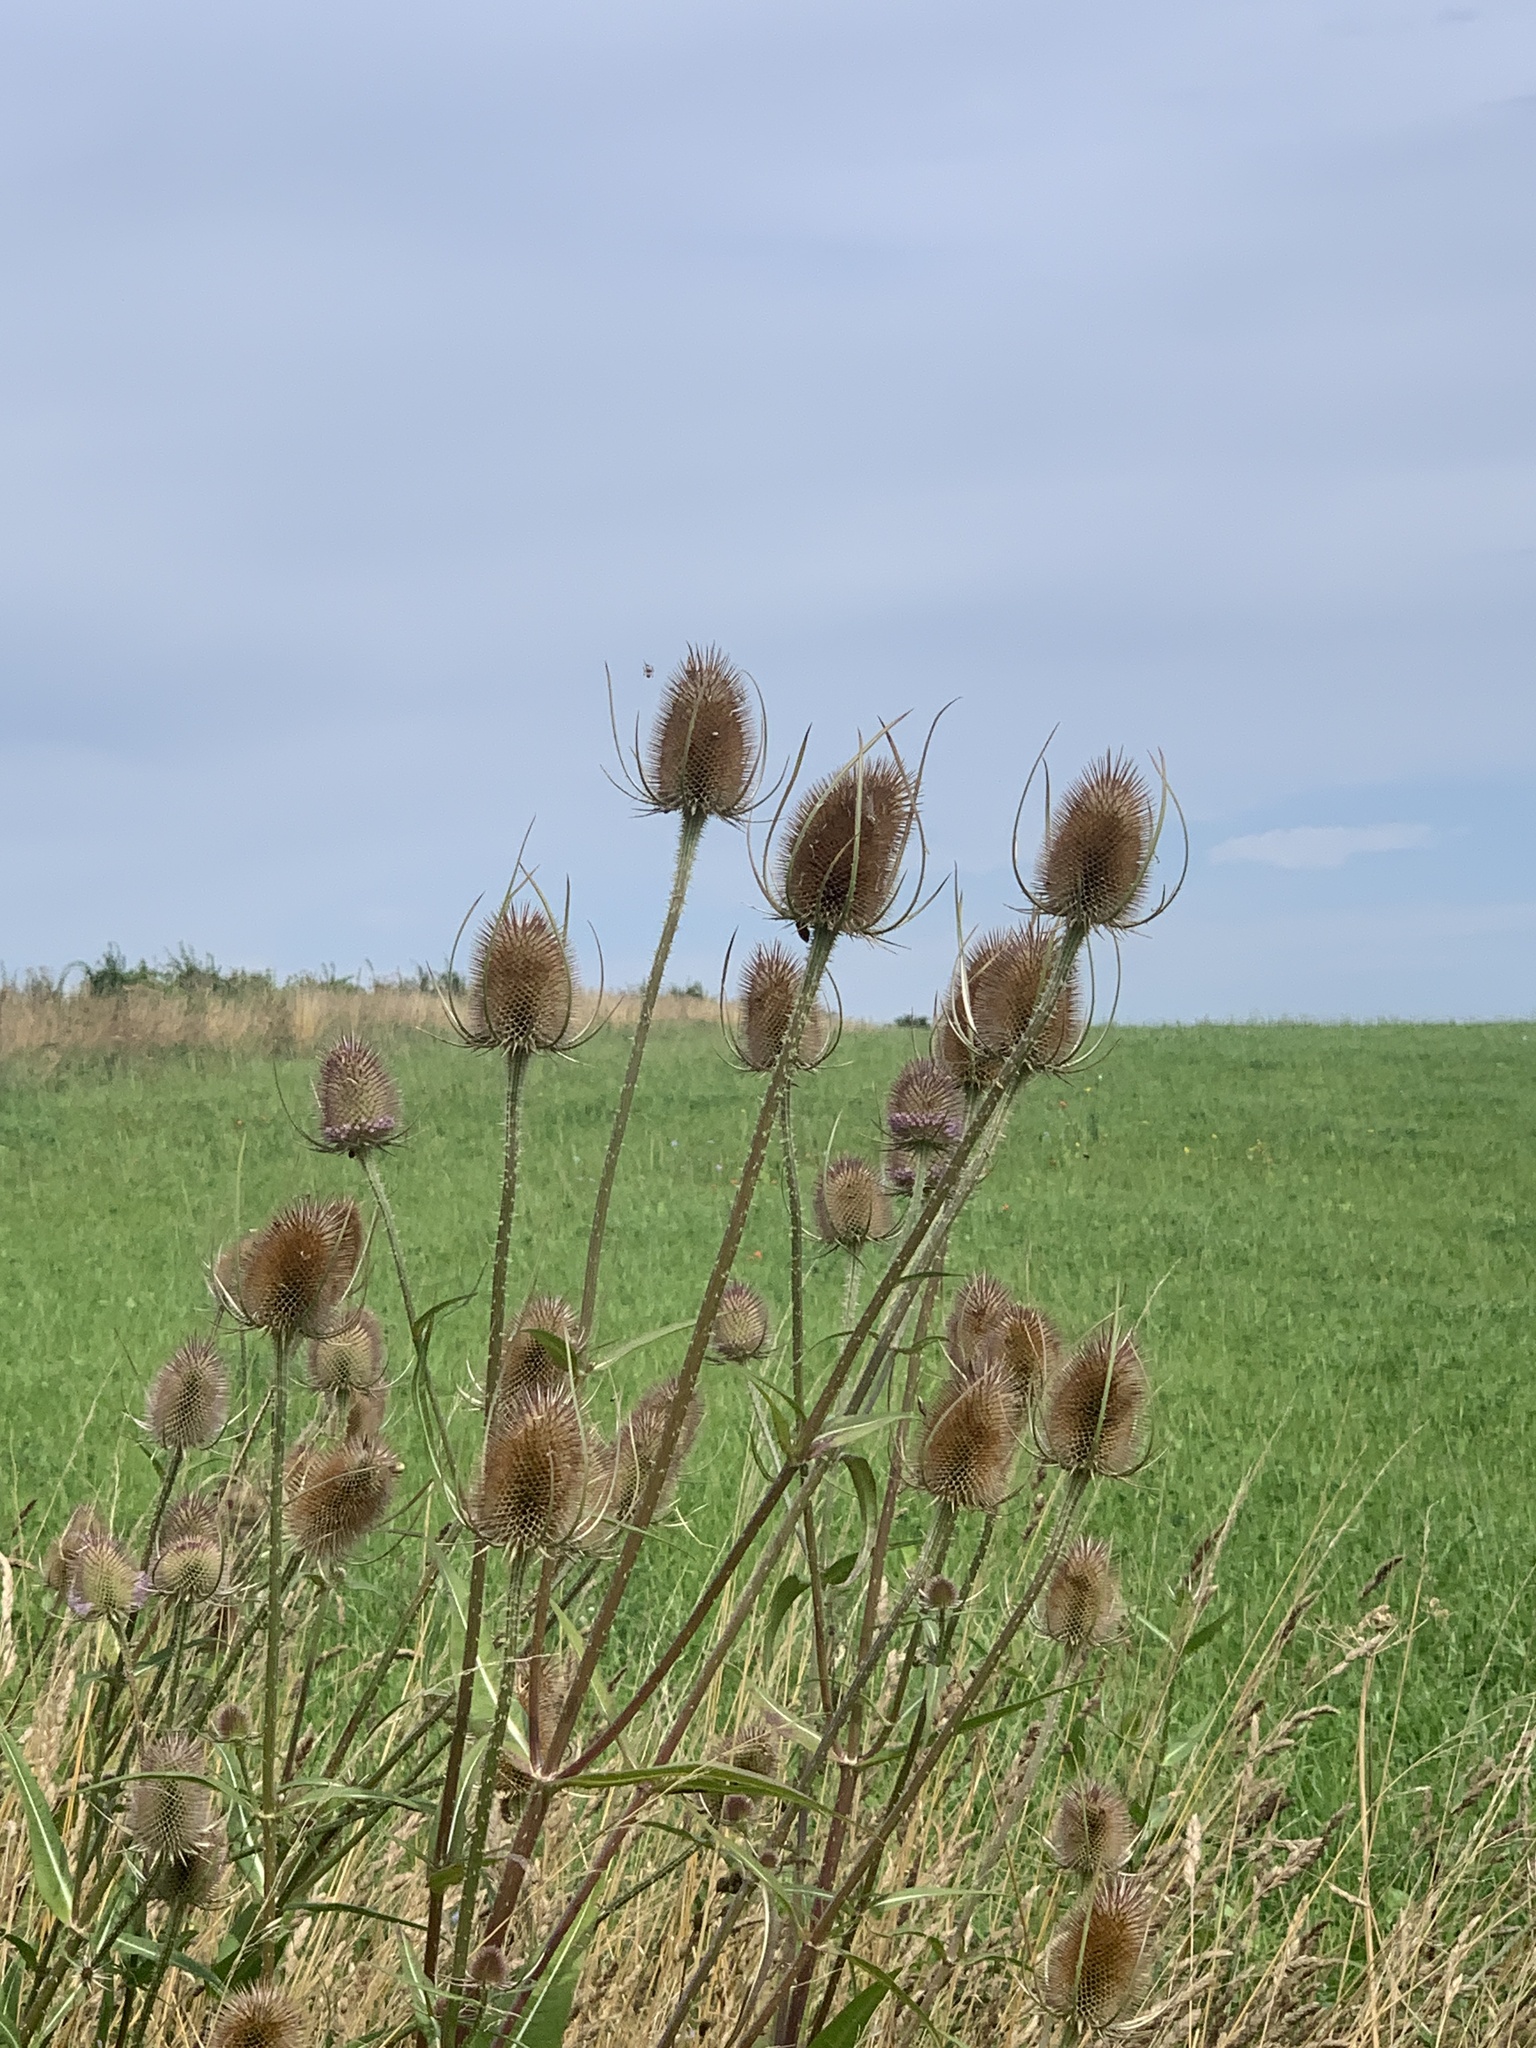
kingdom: Plantae
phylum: Tracheophyta
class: Magnoliopsida
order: Dipsacales
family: Caprifoliaceae
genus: Dipsacus
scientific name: Dipsacus fullonum
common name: Teasel
